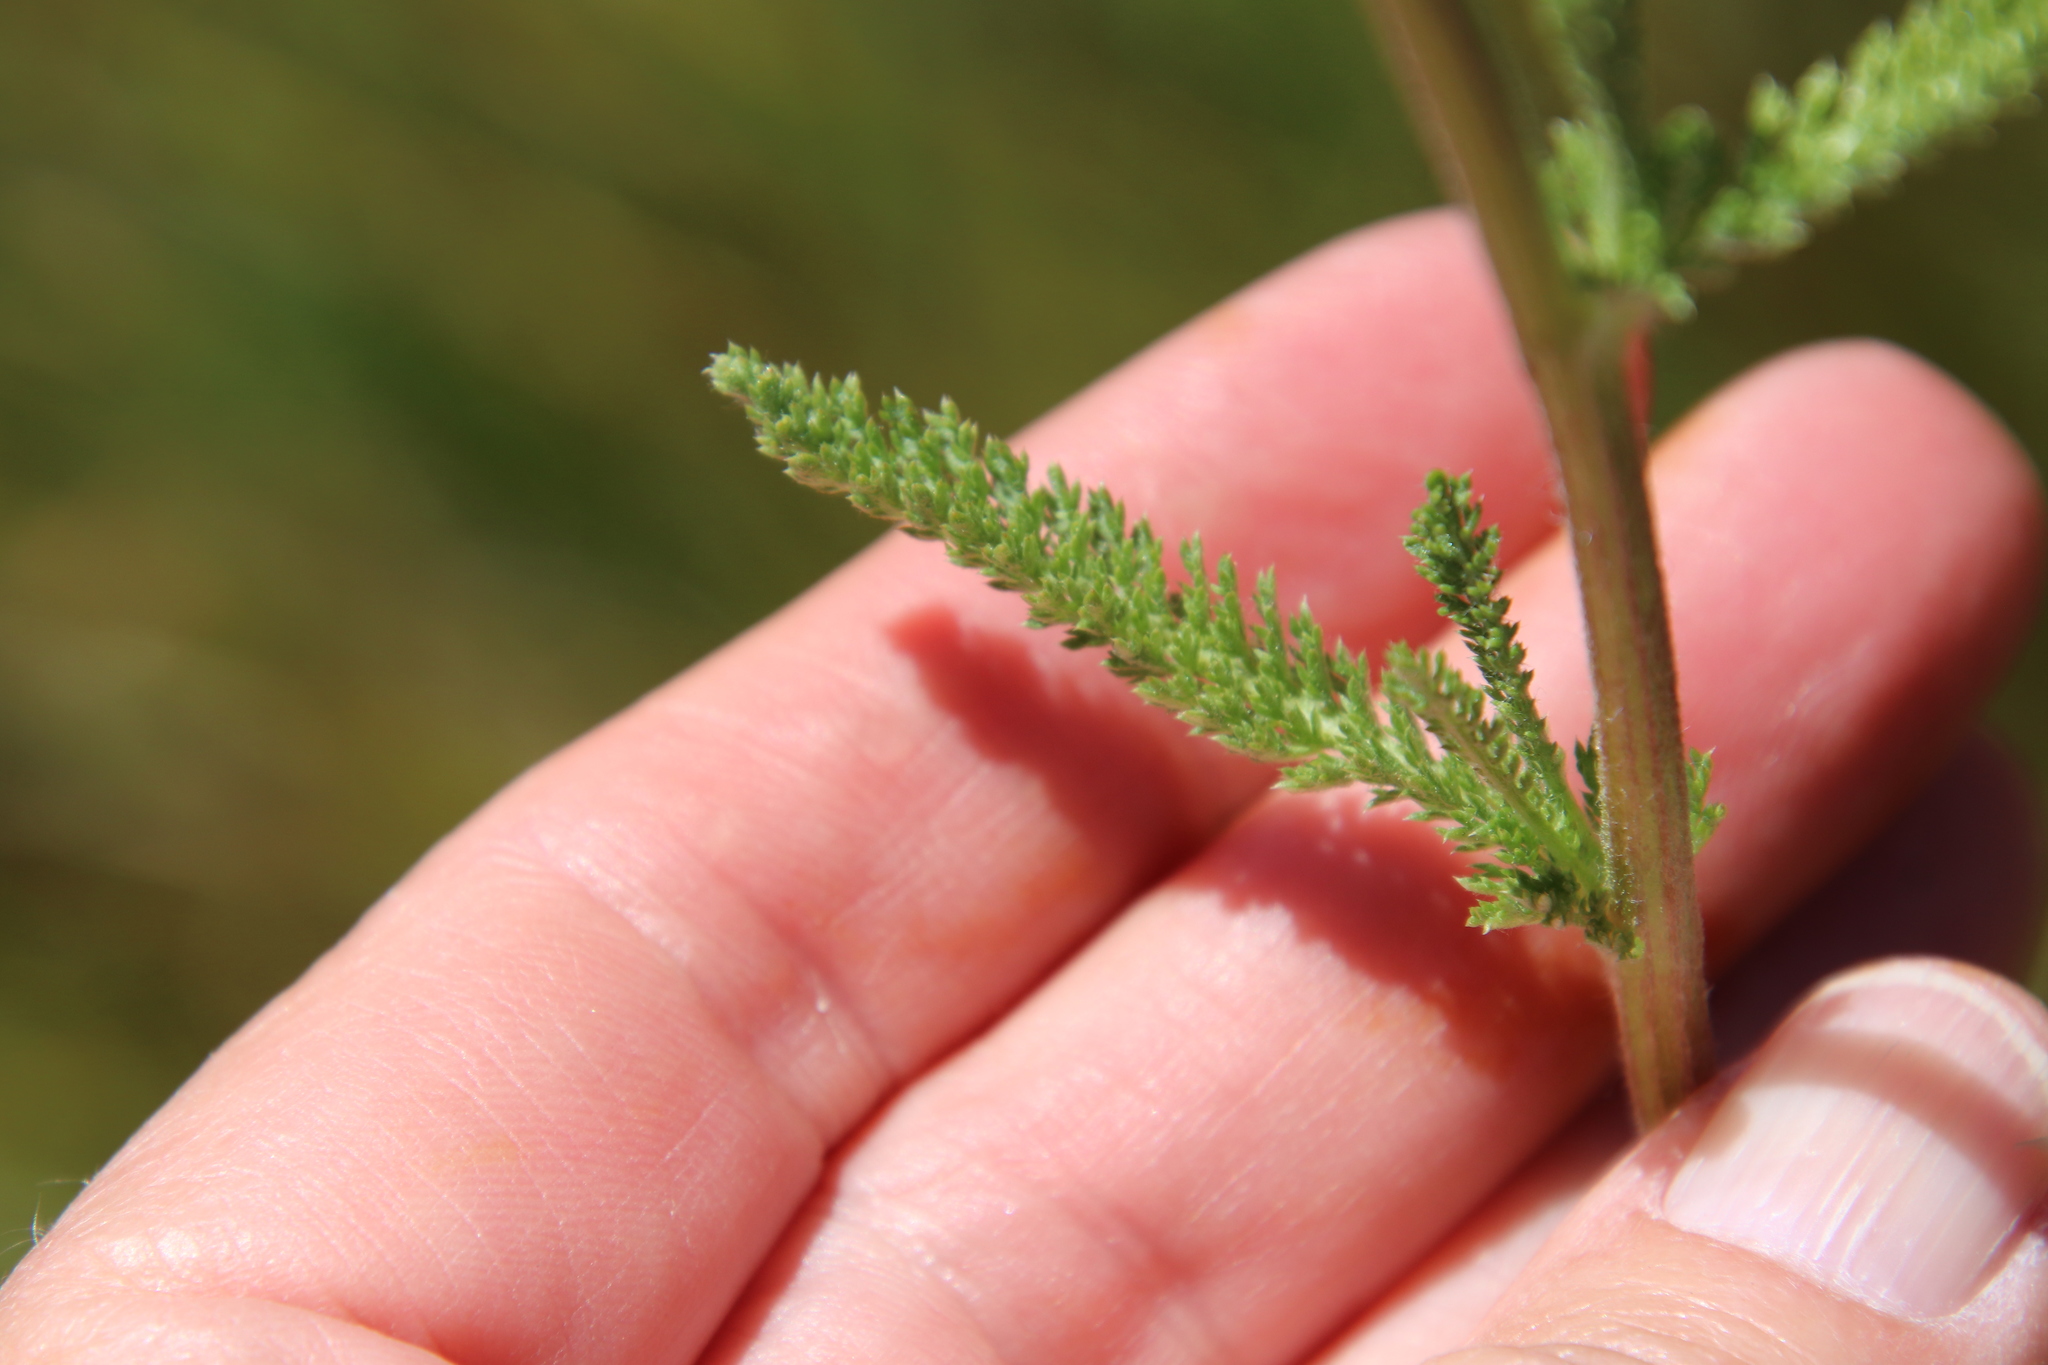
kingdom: Plantae
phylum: Tracheophyta
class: Magnoliopsida
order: Asterales
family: Asteraceae
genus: Achillea
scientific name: Achillea millefolium
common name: Yarrow
